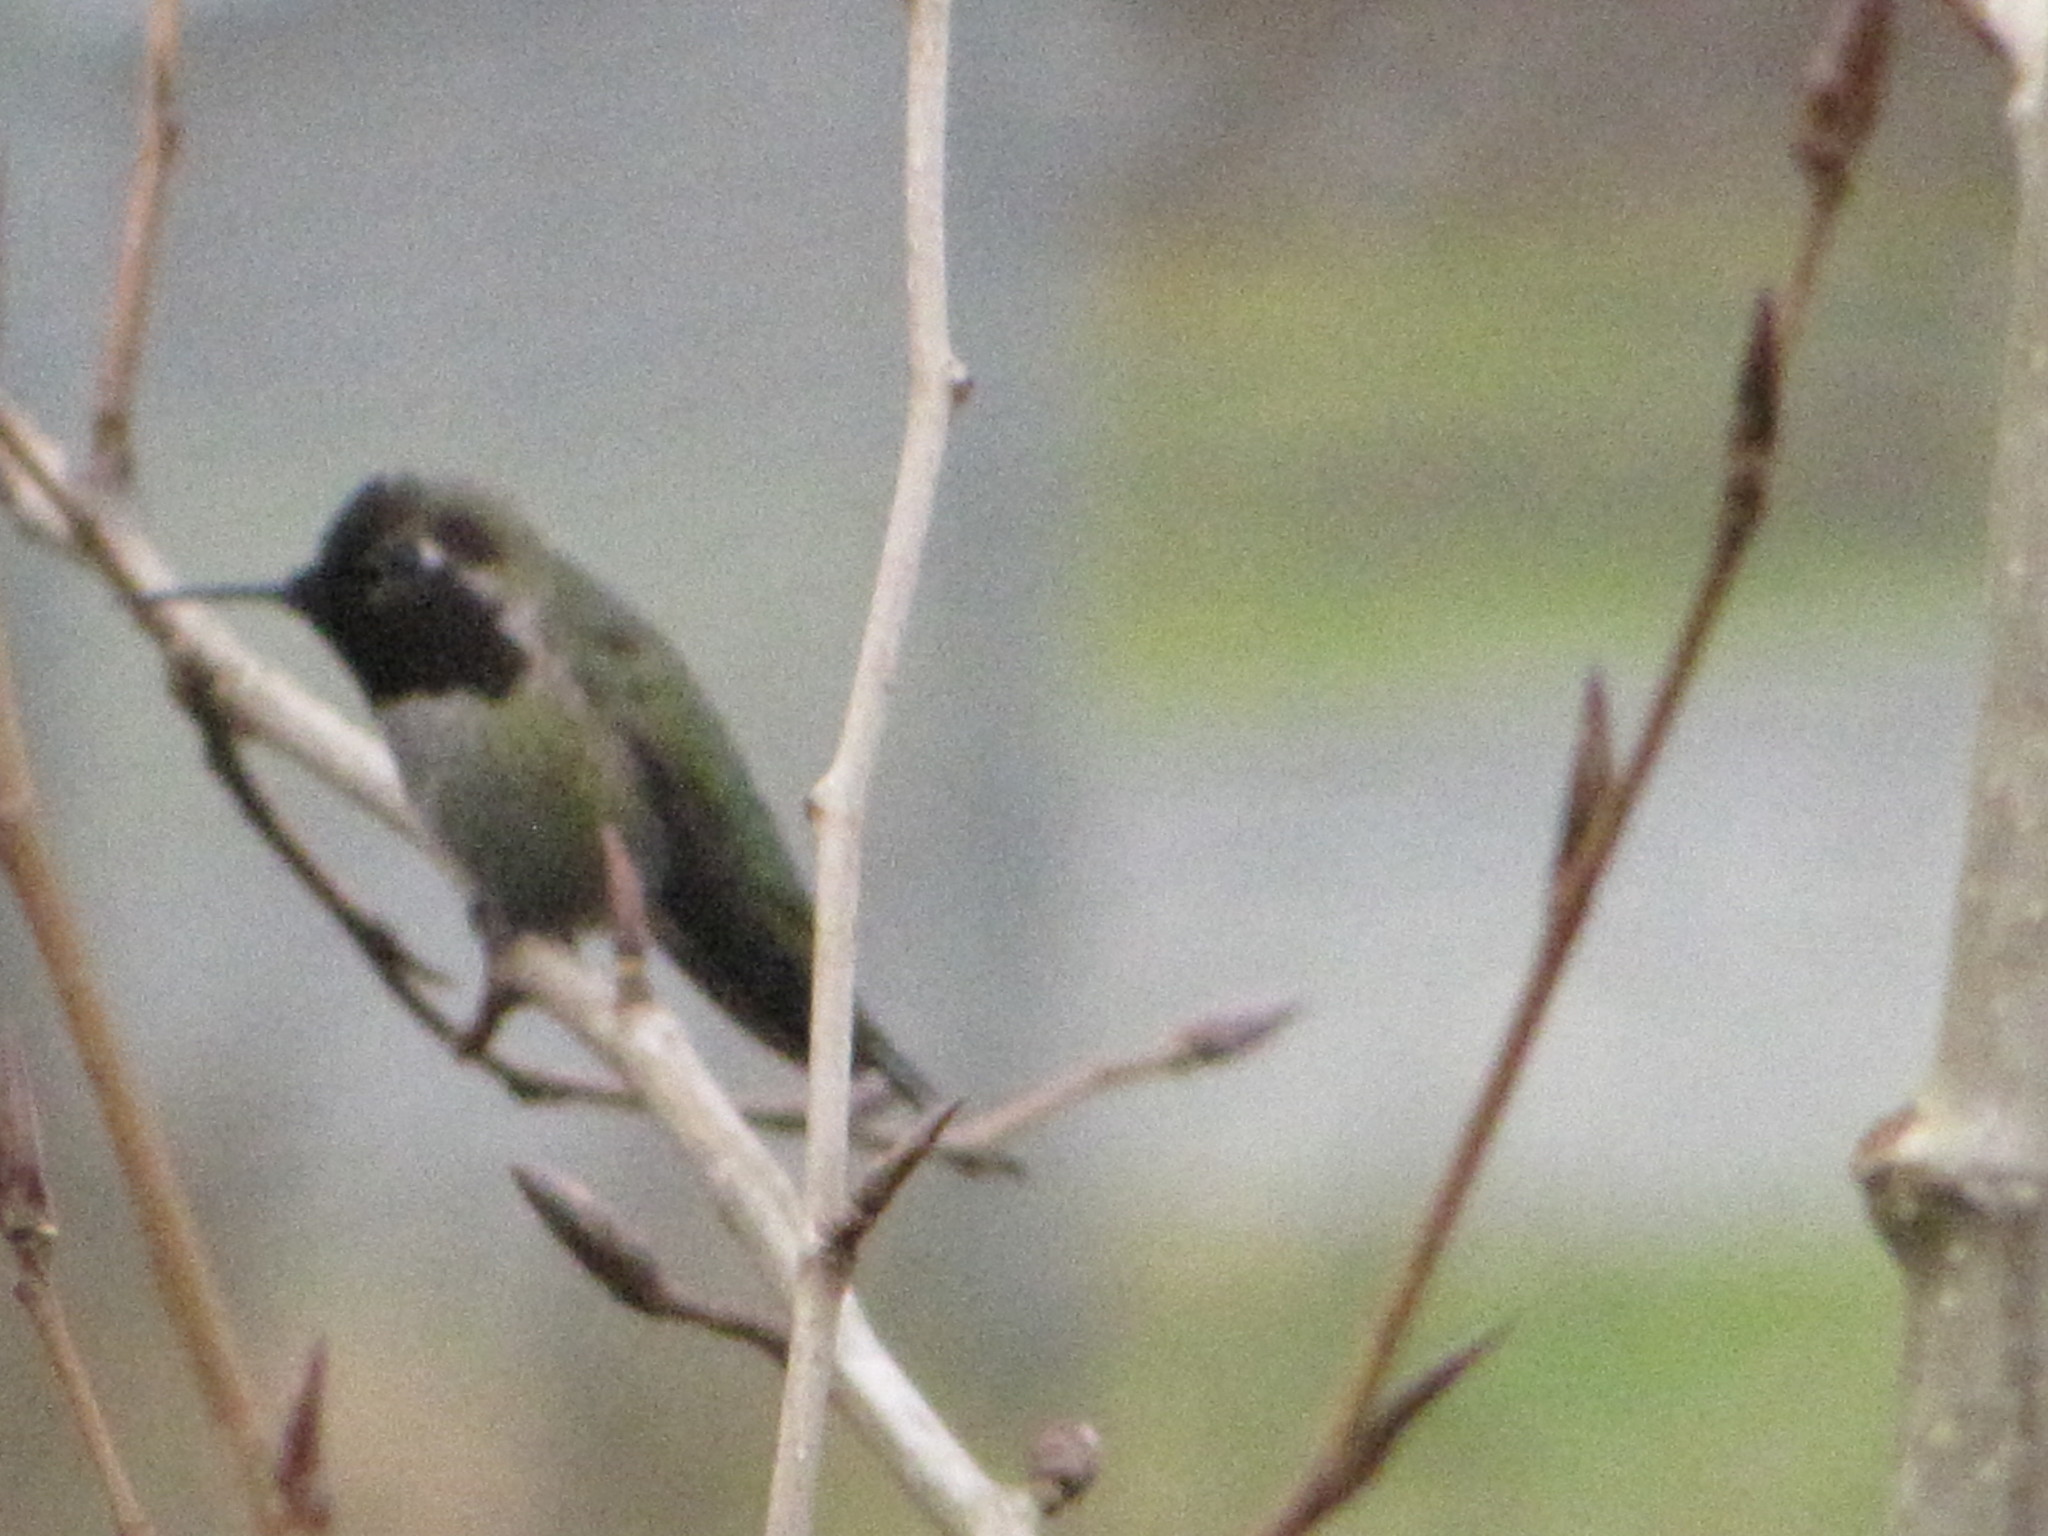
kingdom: Animalia
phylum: Chordata
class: Aves
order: Apodiformes
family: Trochilidae
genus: Calypte
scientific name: Calypte anna
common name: Anna's hummingbird
